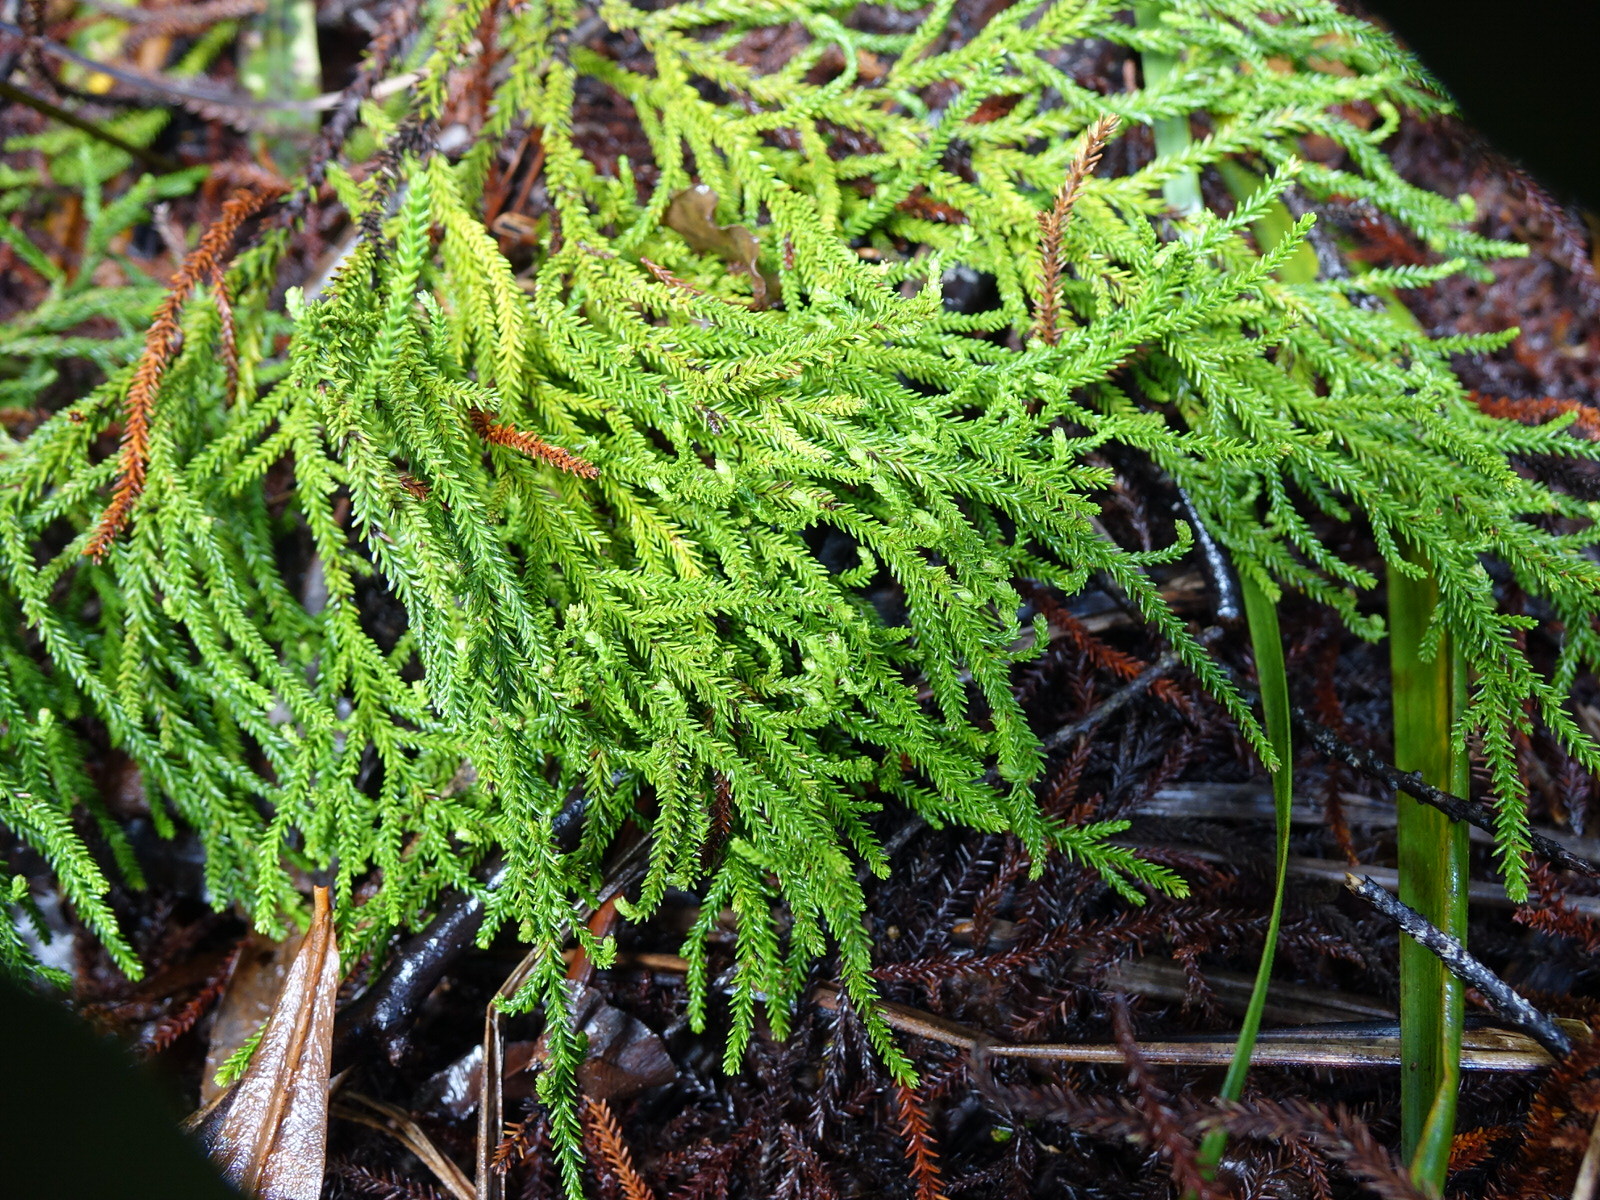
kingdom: Plantae
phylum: Tracheophyta
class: Pinopsida
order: Pinales
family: Podocarpaceae
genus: Dacrydium
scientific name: Dacrydium cupressinum
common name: Red pine
